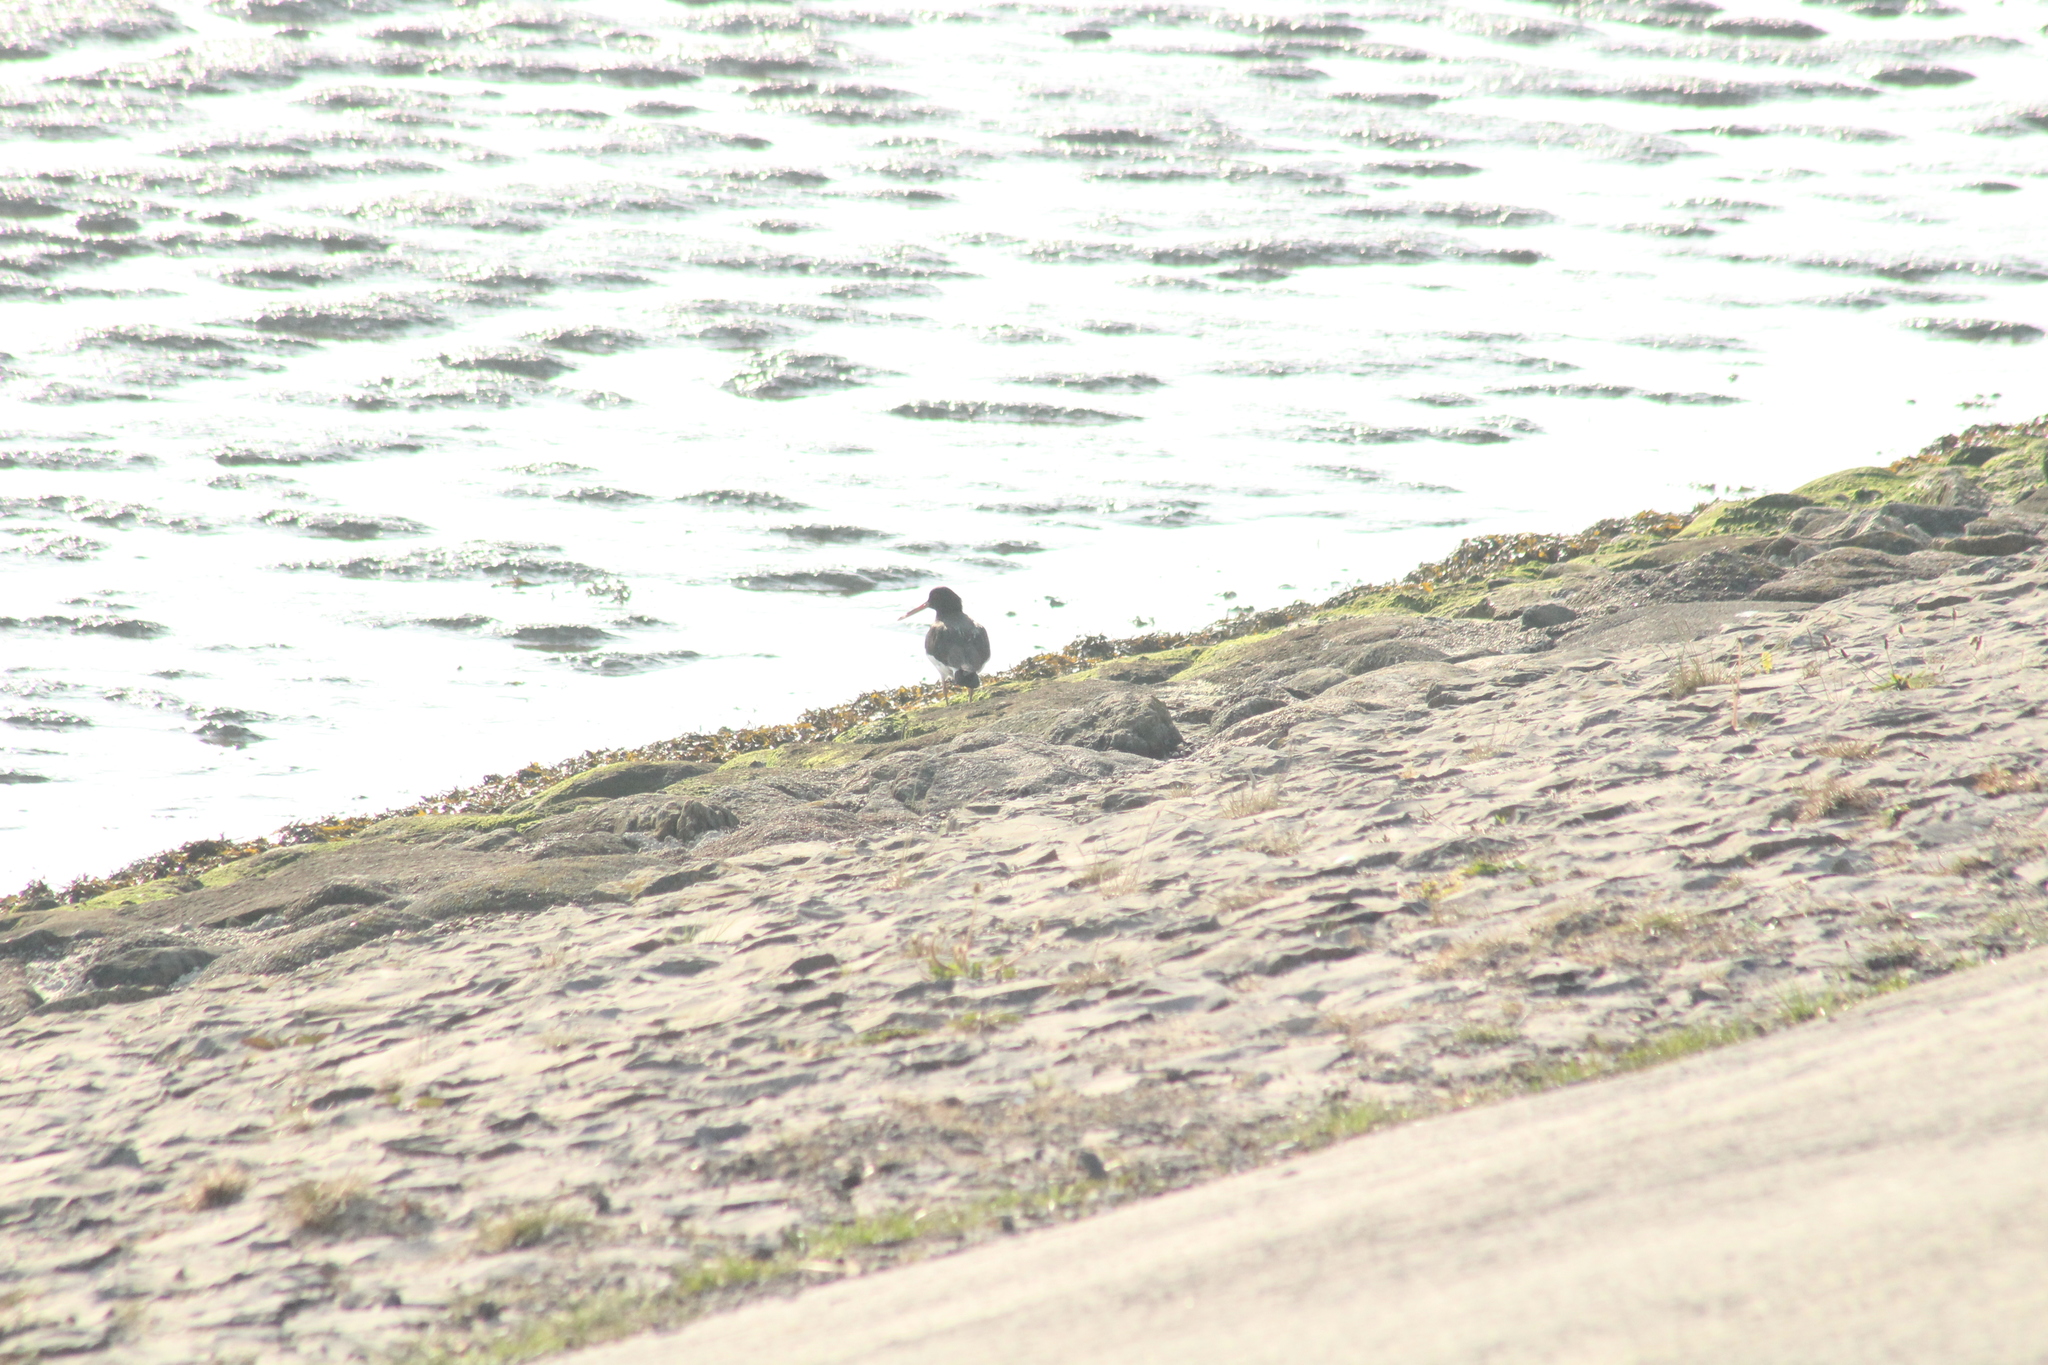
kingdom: Animalia
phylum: Chordata
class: Aves
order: Charadriiformes
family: Haematopodidae
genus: Haematopus
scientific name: Haematopus ostralegus
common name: Eurasian oystercatcher
